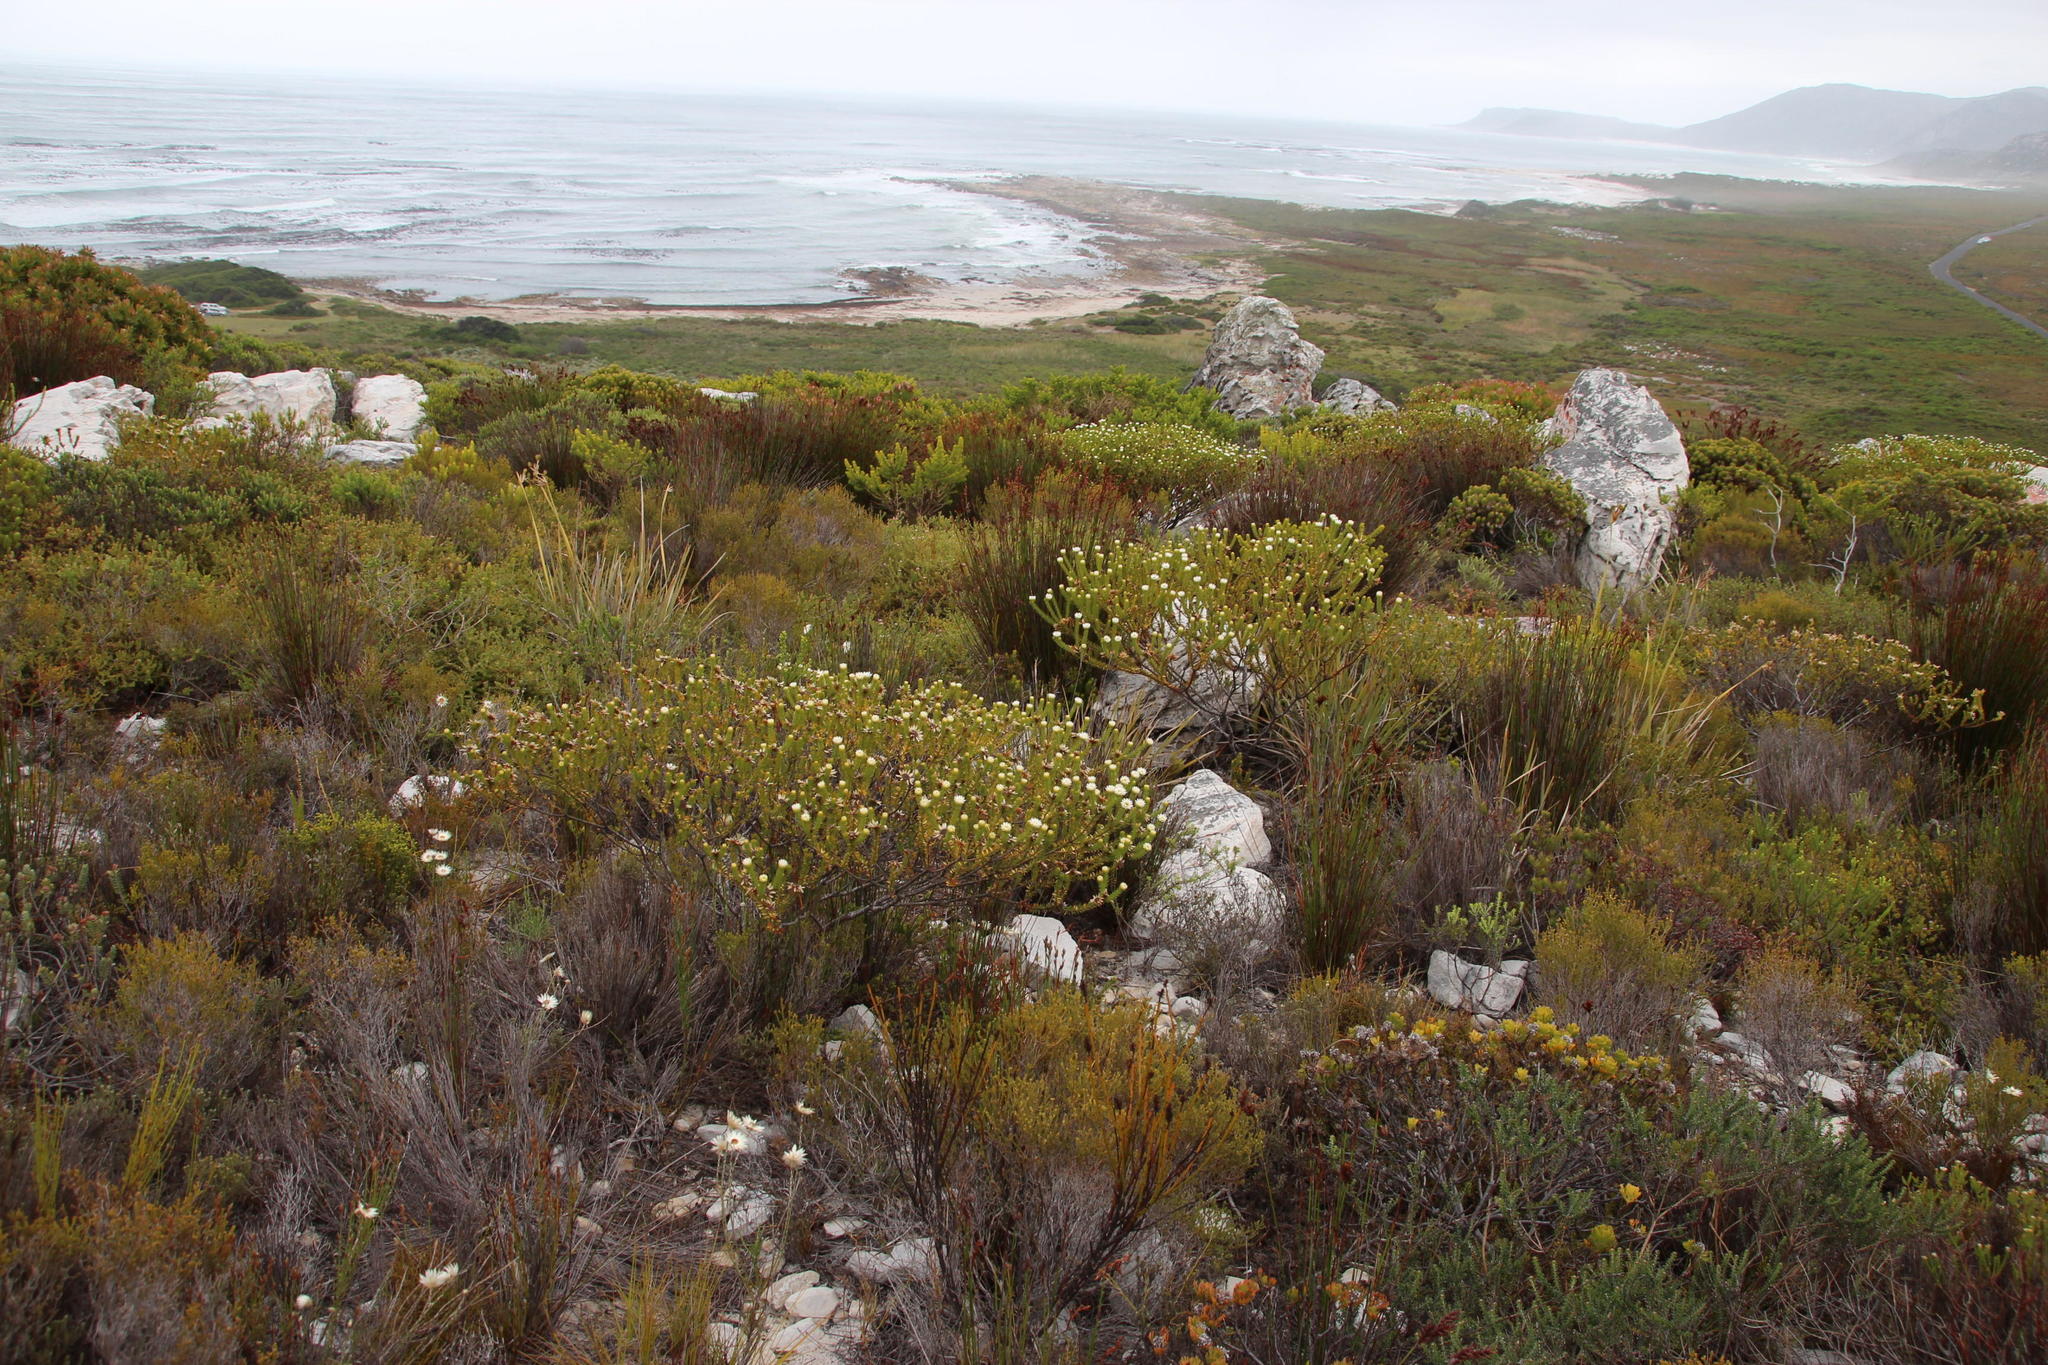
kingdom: Plantae
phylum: Tracheophyta
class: Magnoliopsida
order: Bruniales
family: Bruniaceae
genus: Staavia
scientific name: Staavia dodii
